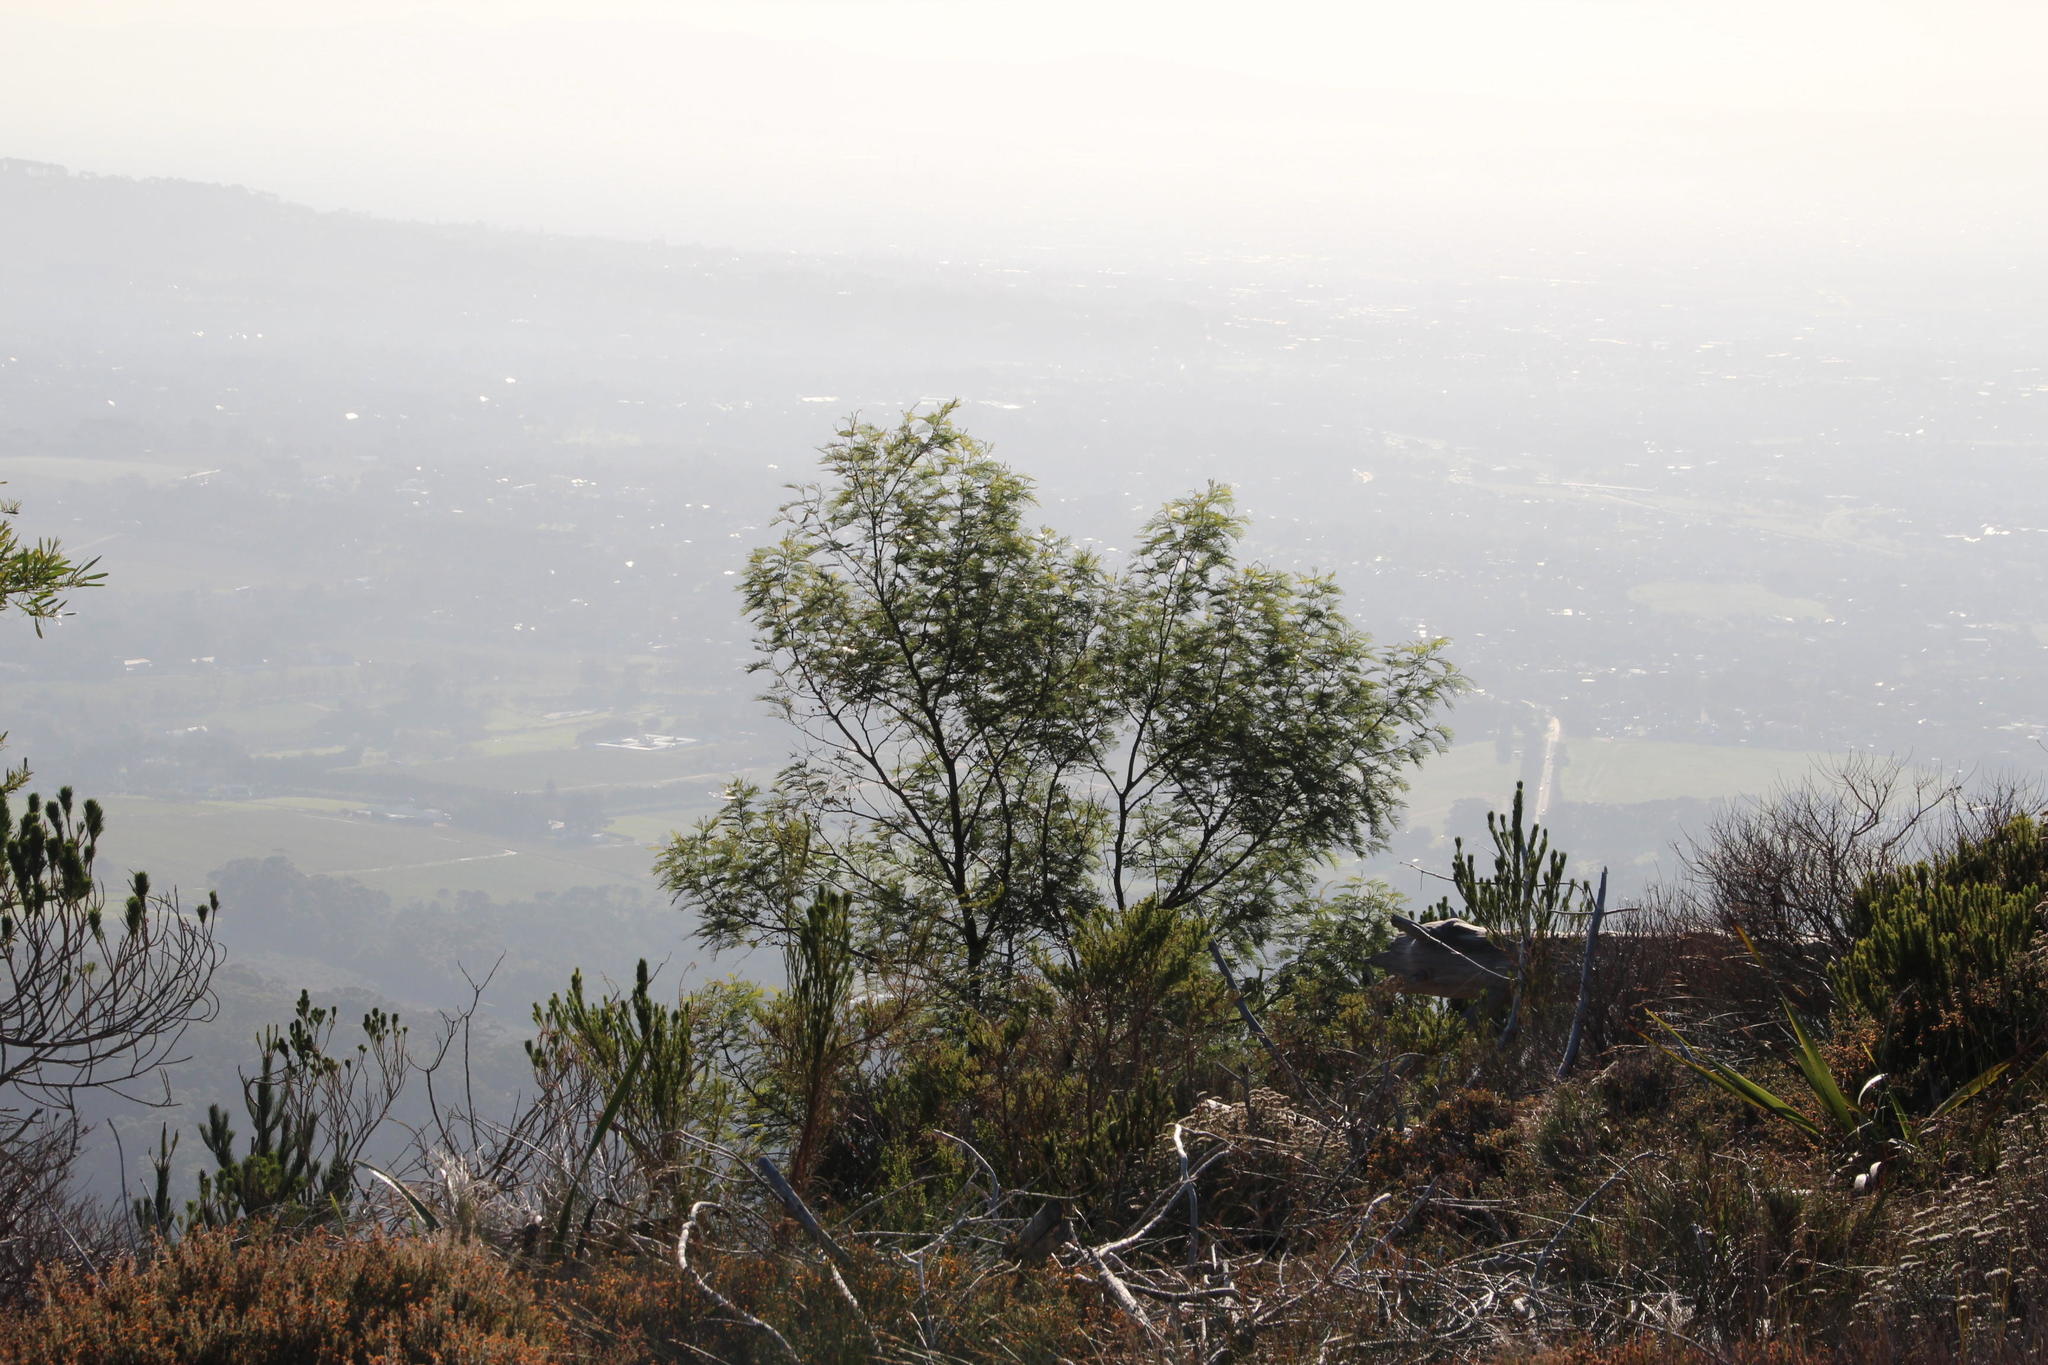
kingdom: Plantae
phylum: Tracheophyta
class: Magnoliopsida
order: Fabales
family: Fabaceae
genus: Acacia
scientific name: Acacia mearnsii
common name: Black wattle
